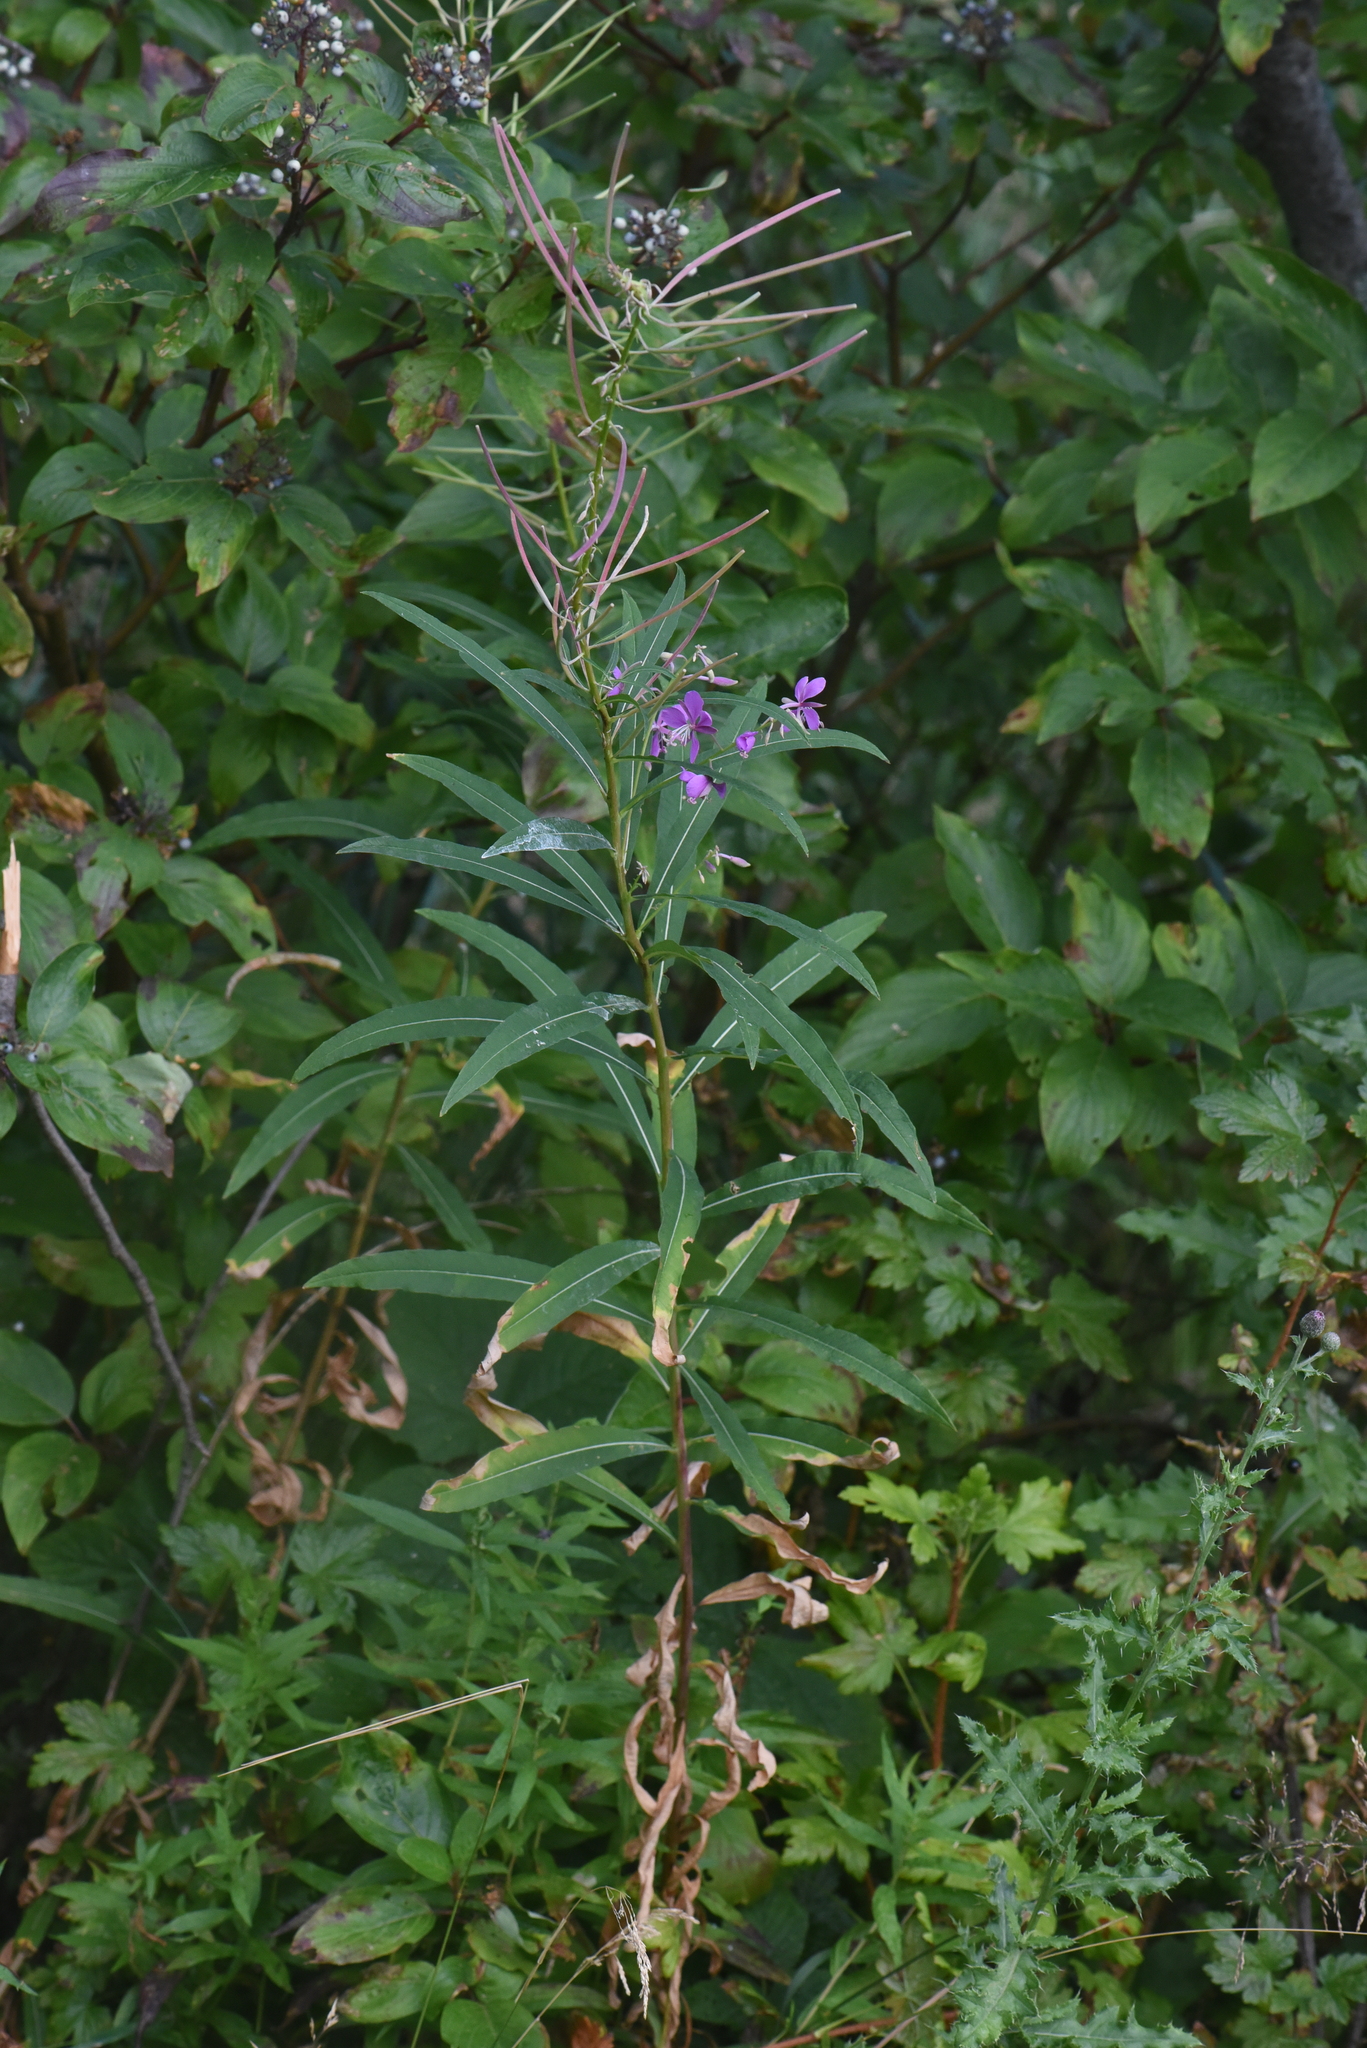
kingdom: Plantae
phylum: Tracheophyta
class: Magnoliopsida
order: Myrtales
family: Onagraceae
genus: Chamaenerion
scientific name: Chamaenerion angustifolium
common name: Fireweed
